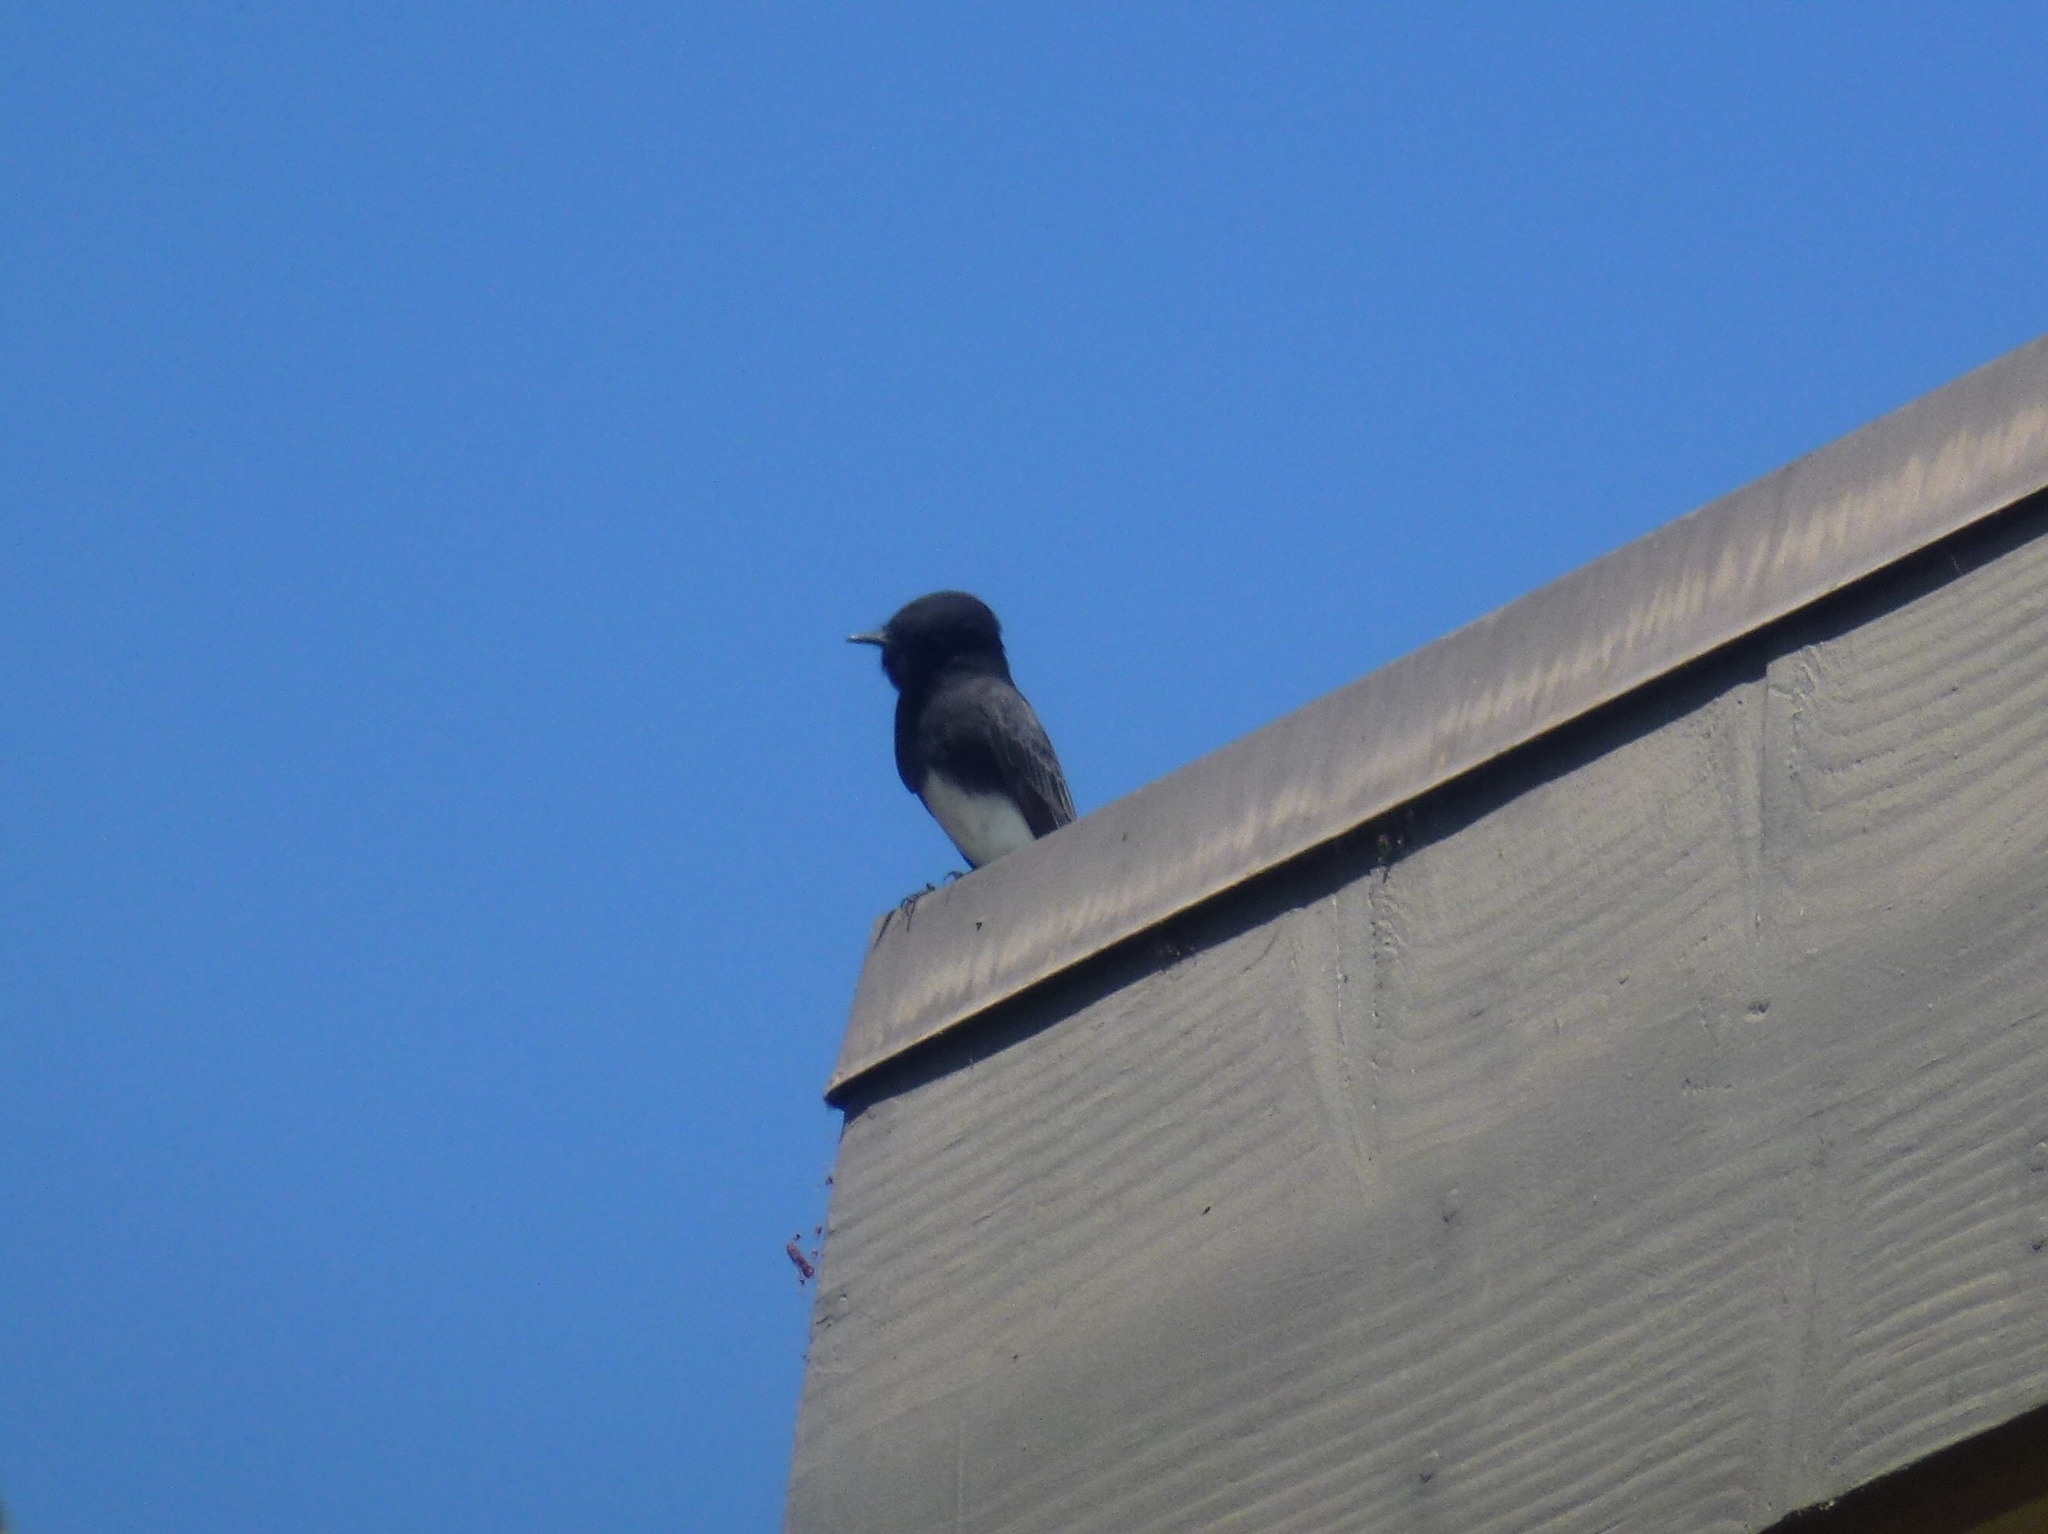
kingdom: Animalia
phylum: Chordata
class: Aves
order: Passeriformes
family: Tyrannidae
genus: Sayornis
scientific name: Sayornis nigricans
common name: Black phoebe
